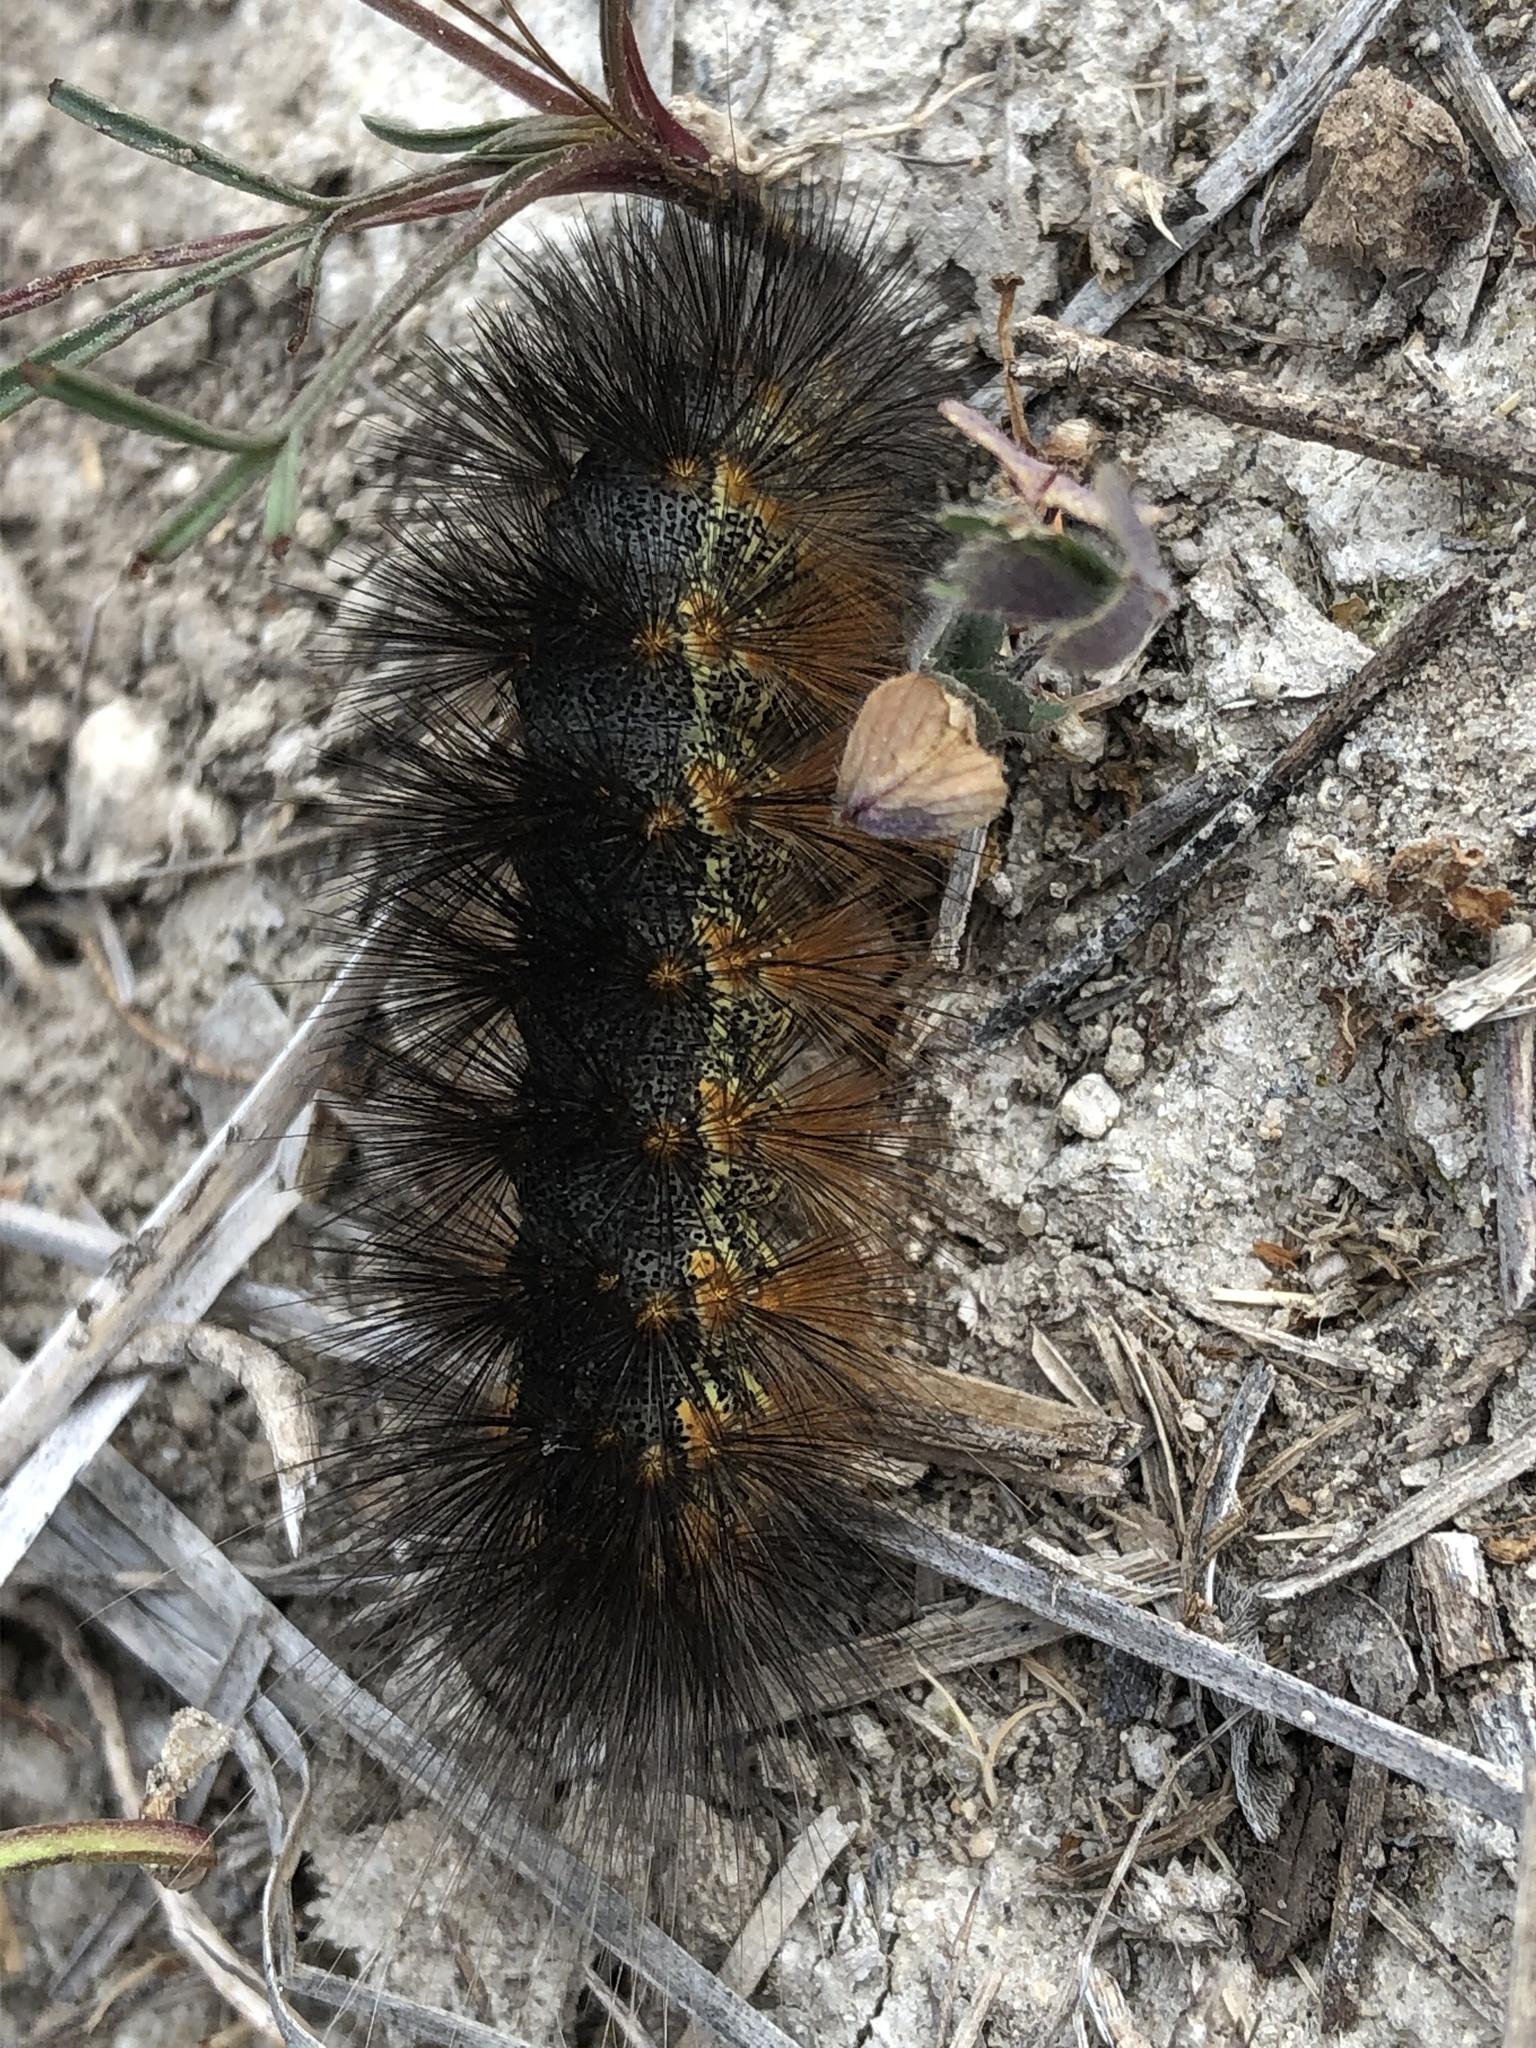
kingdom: Animalia
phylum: Arthropoda
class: Insecta
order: Lepidoptera
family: Erebidae
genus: Estigmene
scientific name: Estigmene acrea
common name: Salt marsh moth
